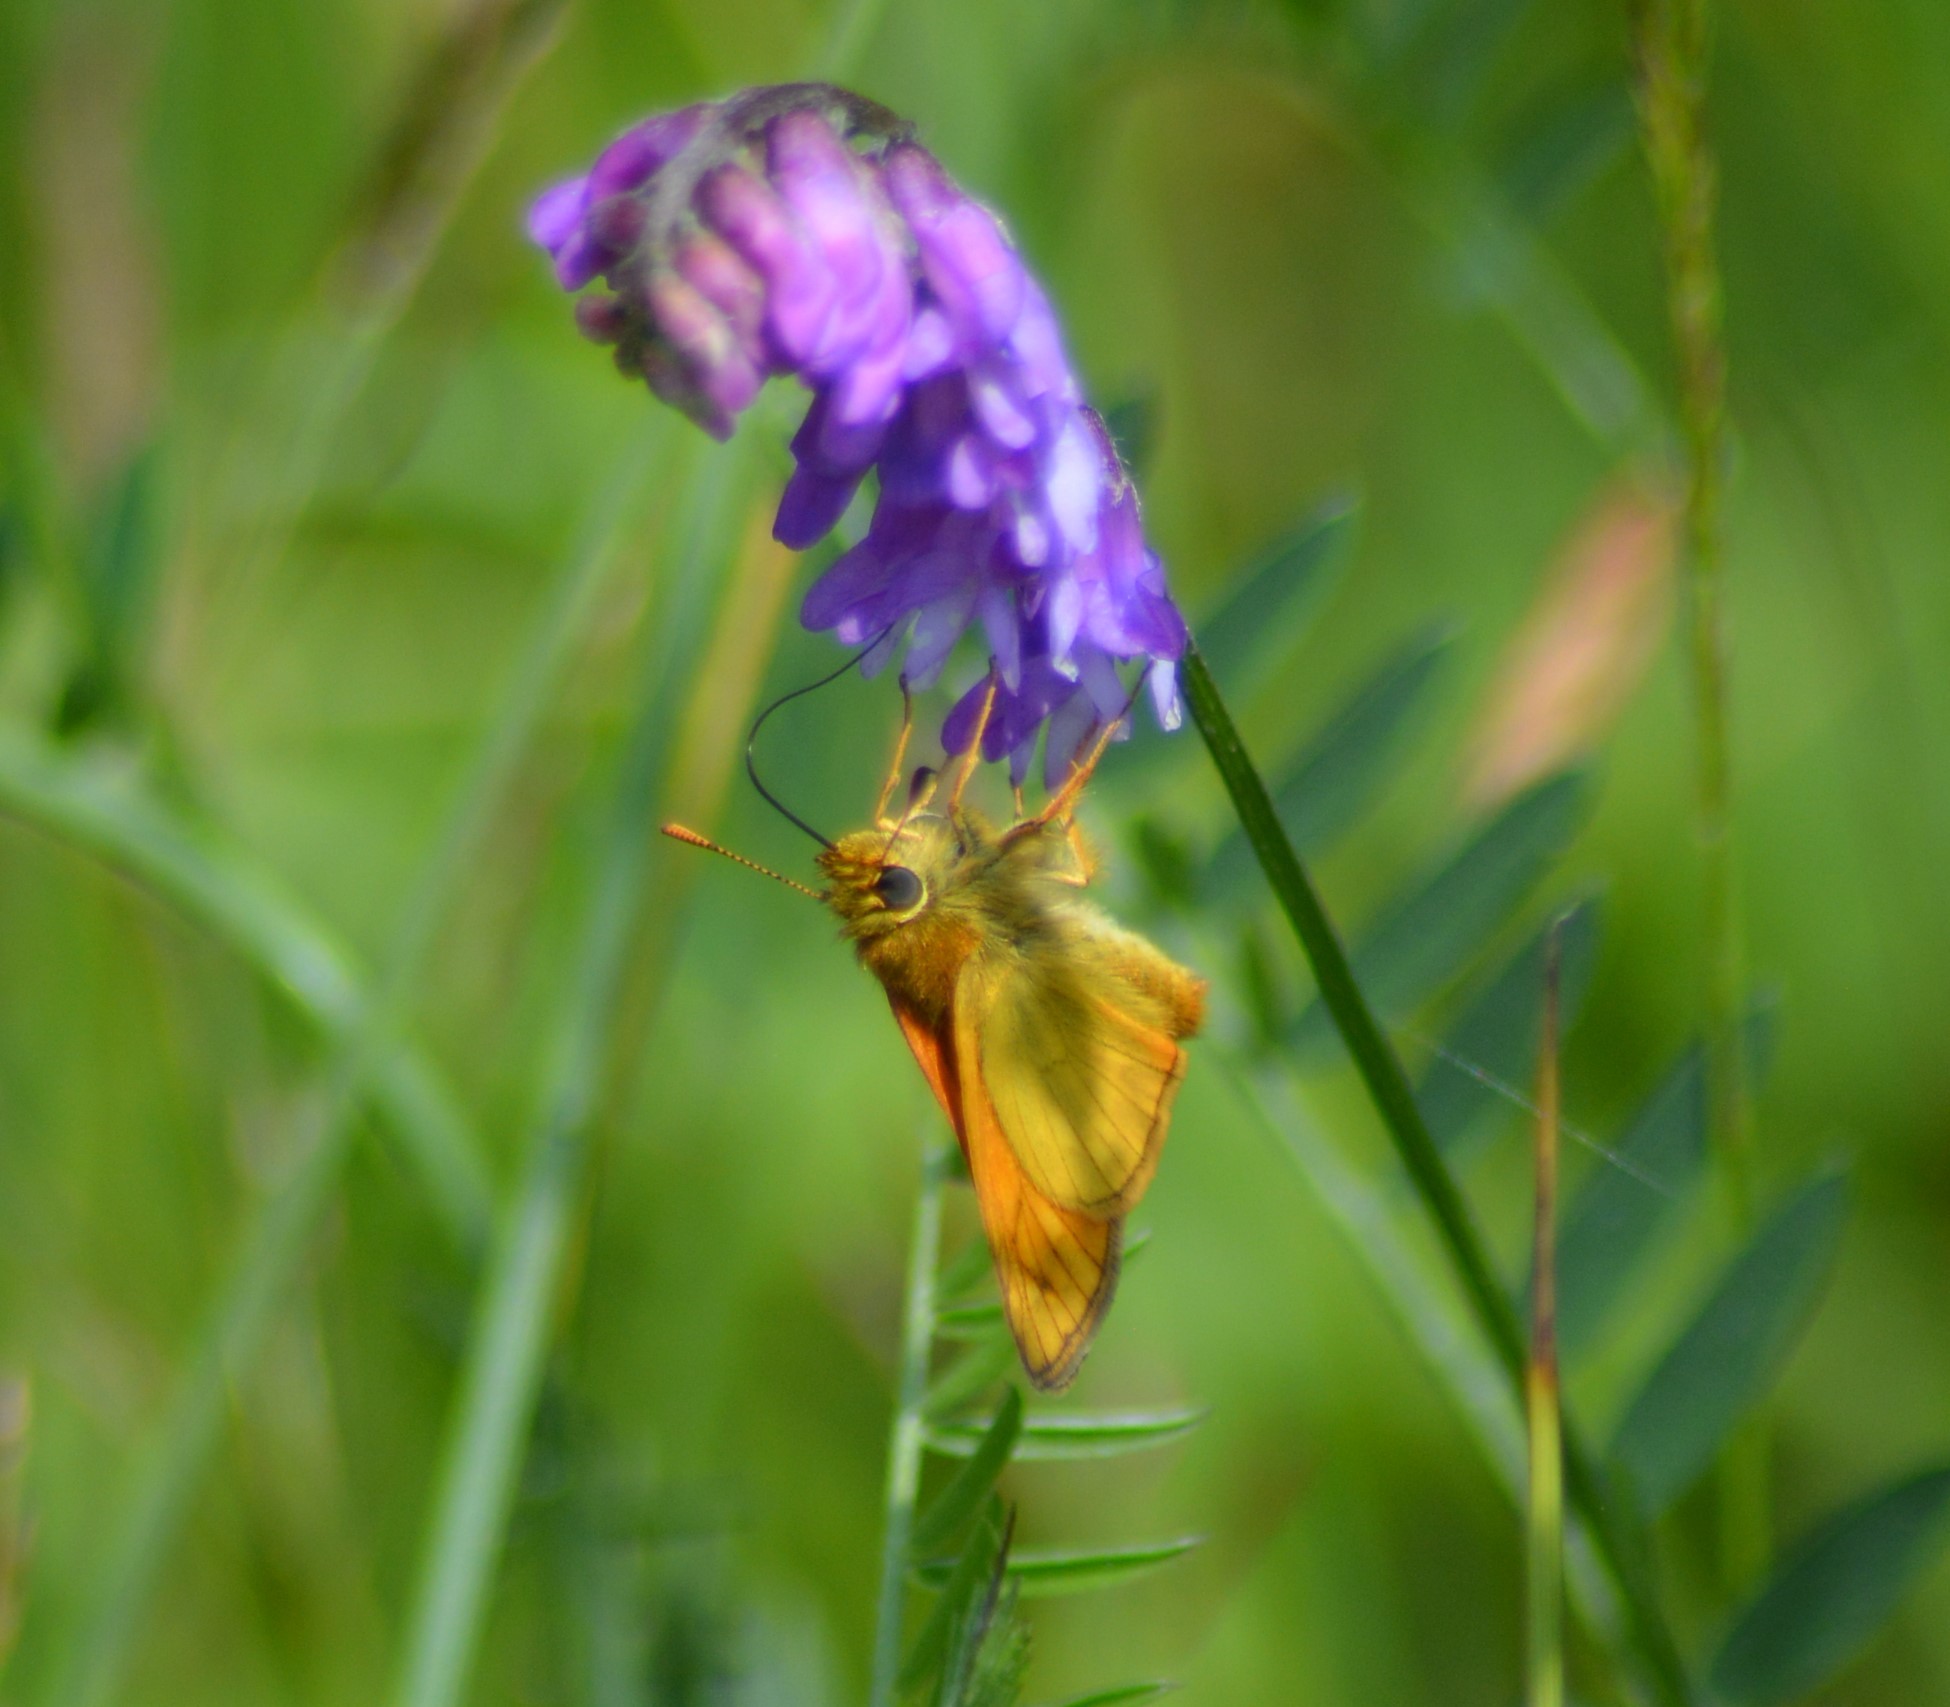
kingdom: Animalia
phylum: Arthropoda
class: Insecta
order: Lepidoptera
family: Hesperiidae
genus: Ochlodes
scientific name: Ochlodes venata
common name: Large skipper
